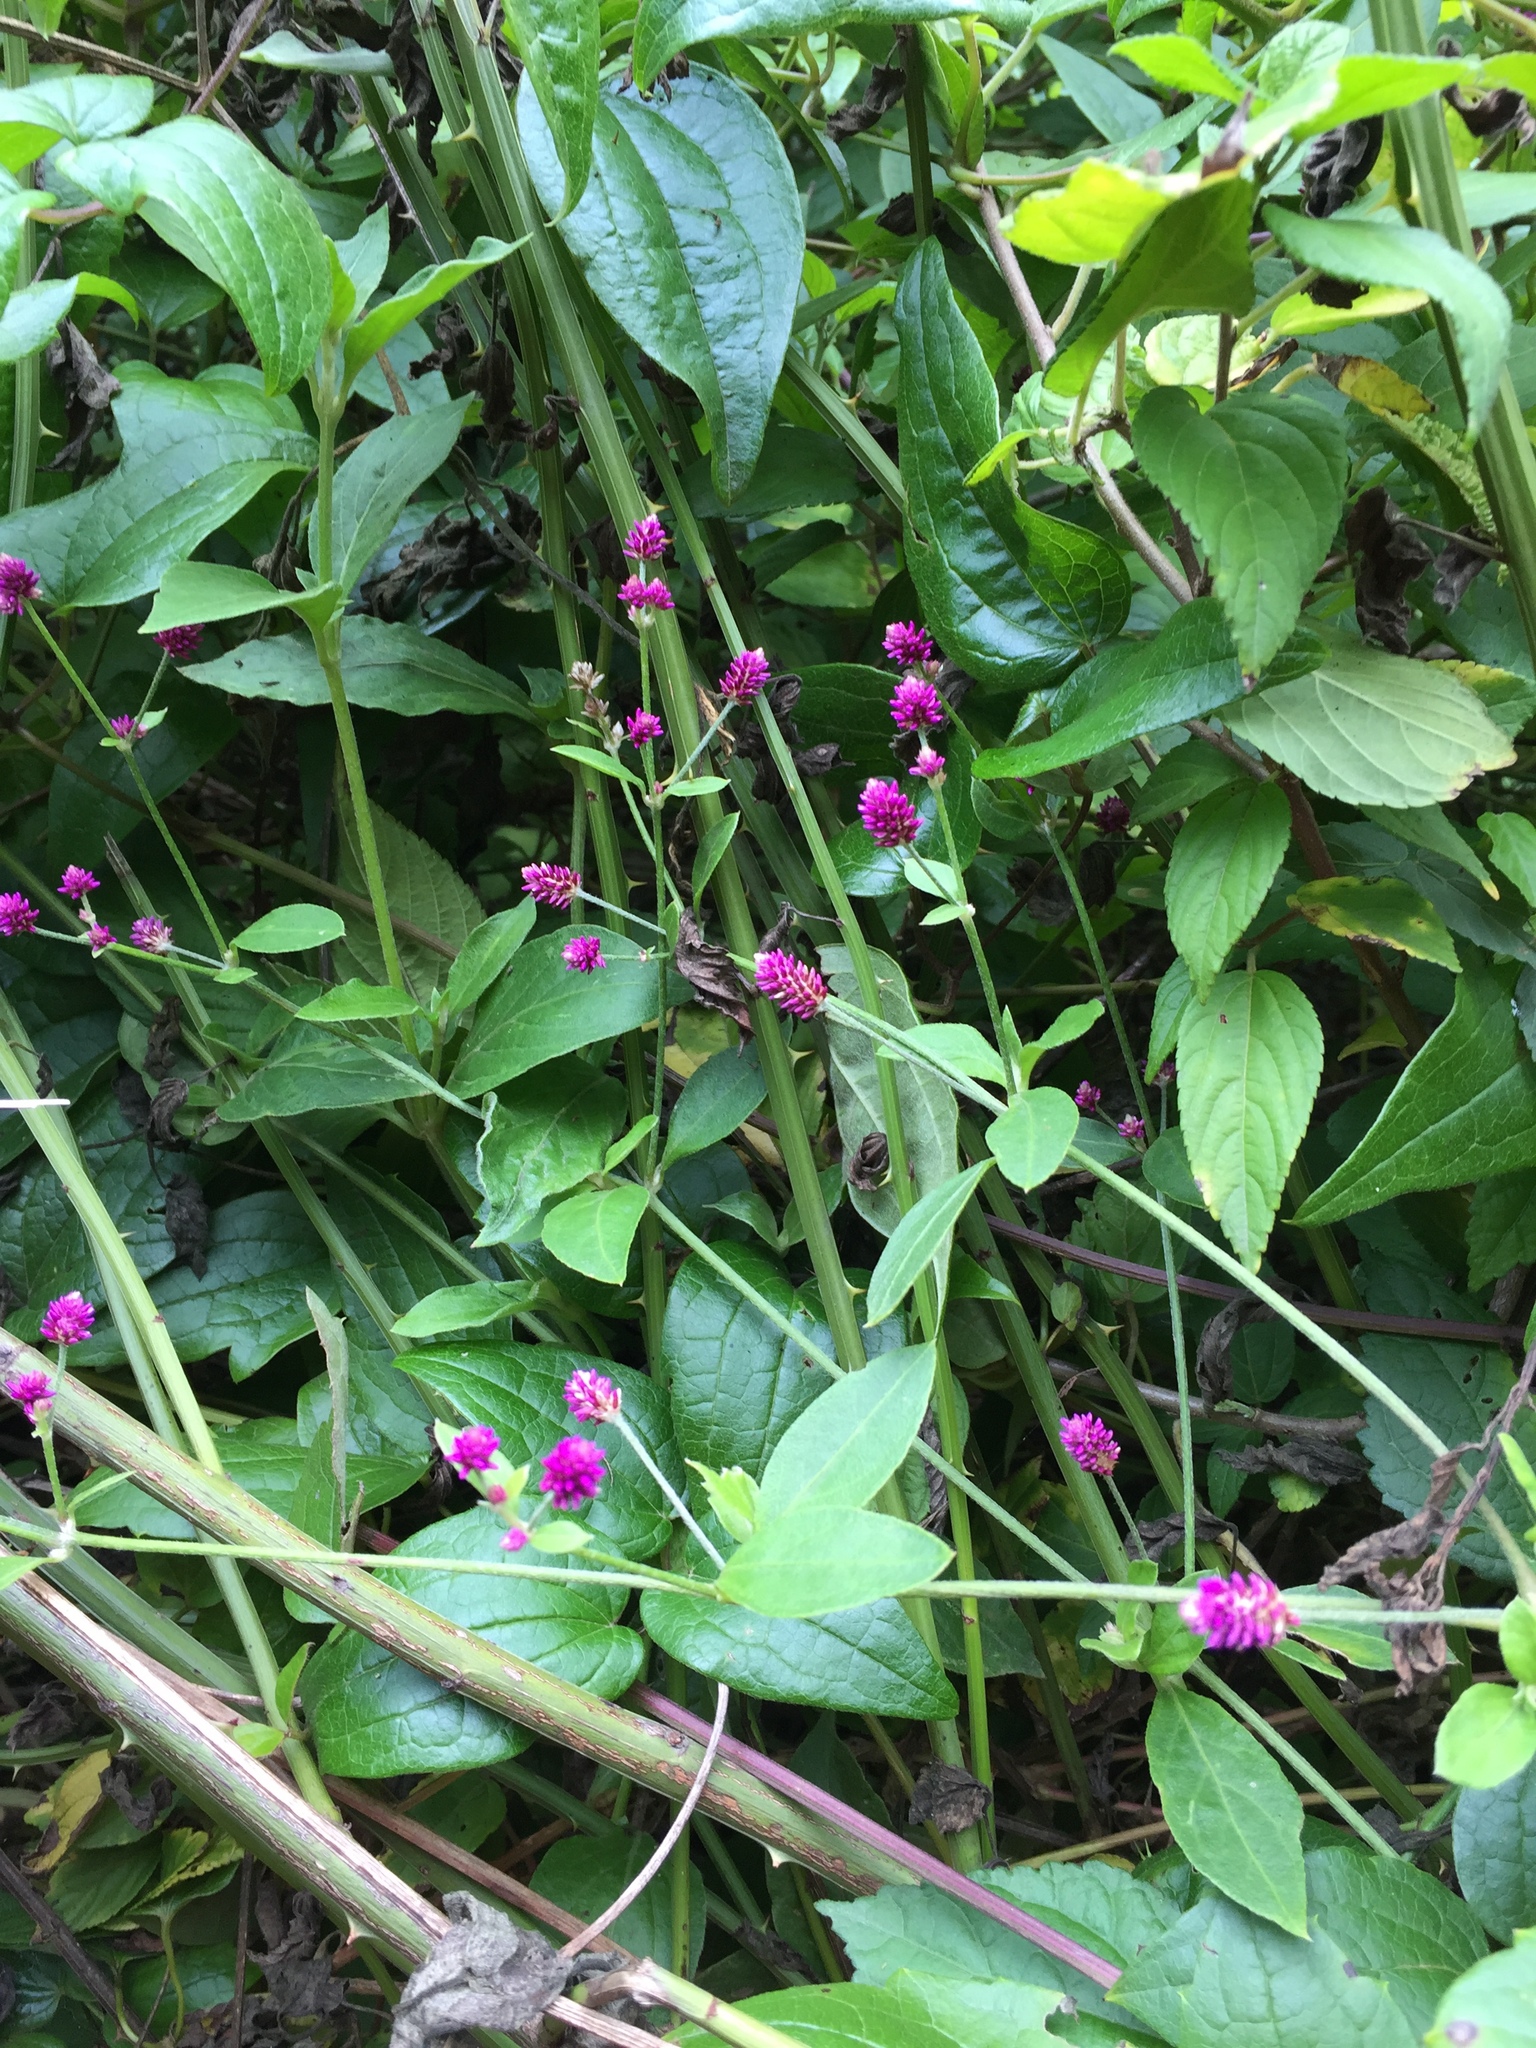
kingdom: Plantae
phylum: Tracheophyta
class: Magnoliopsida
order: Caryophyllales
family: Amaranthaceae
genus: Alternanthera
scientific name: Alternanthera porrigens
